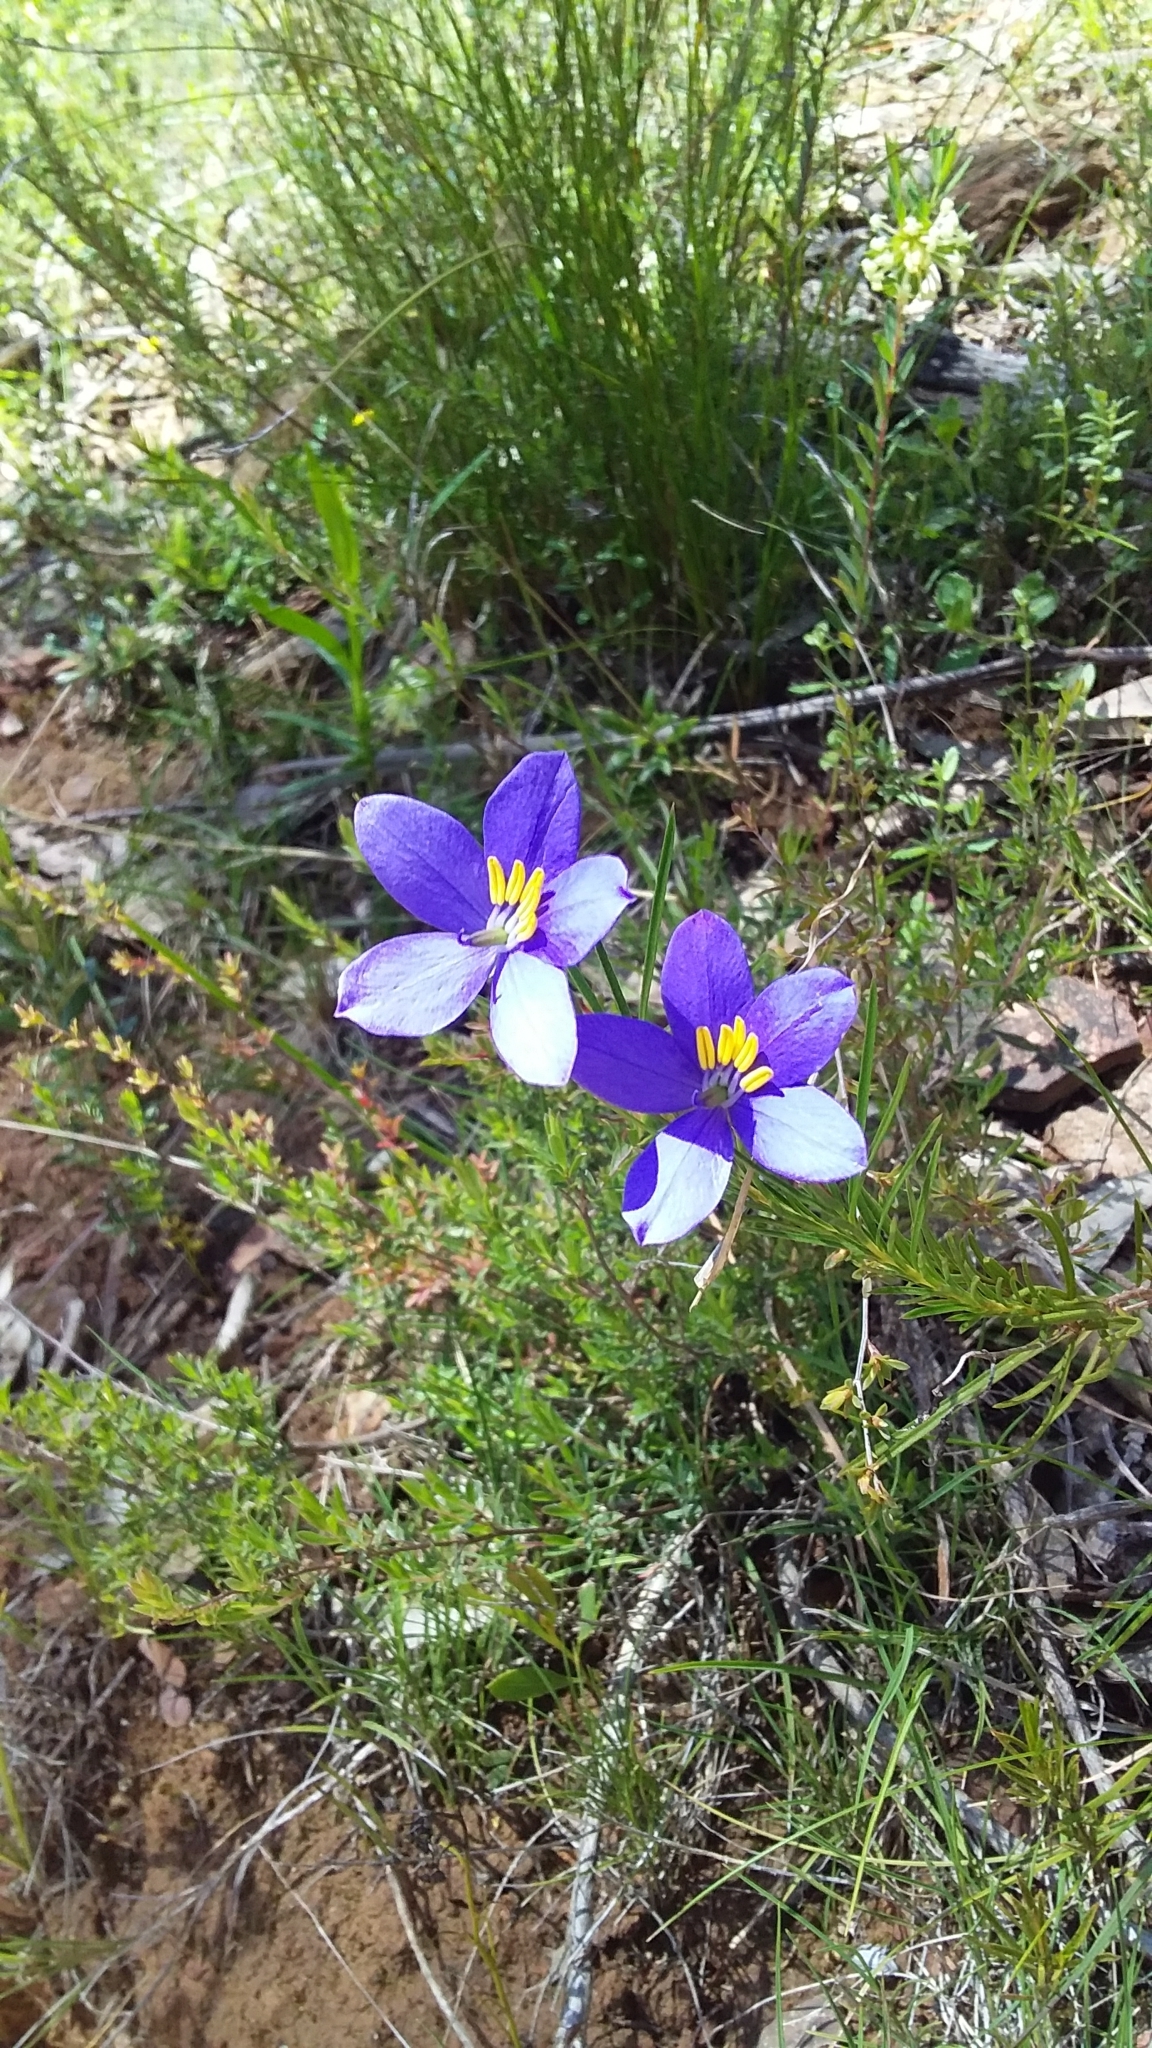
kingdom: Plantae
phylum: Tracheophyta
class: Magnoliopsida
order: Apiales
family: Pittosporaceae
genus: Cheiranthera
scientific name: Cheiranthera alternifolia
